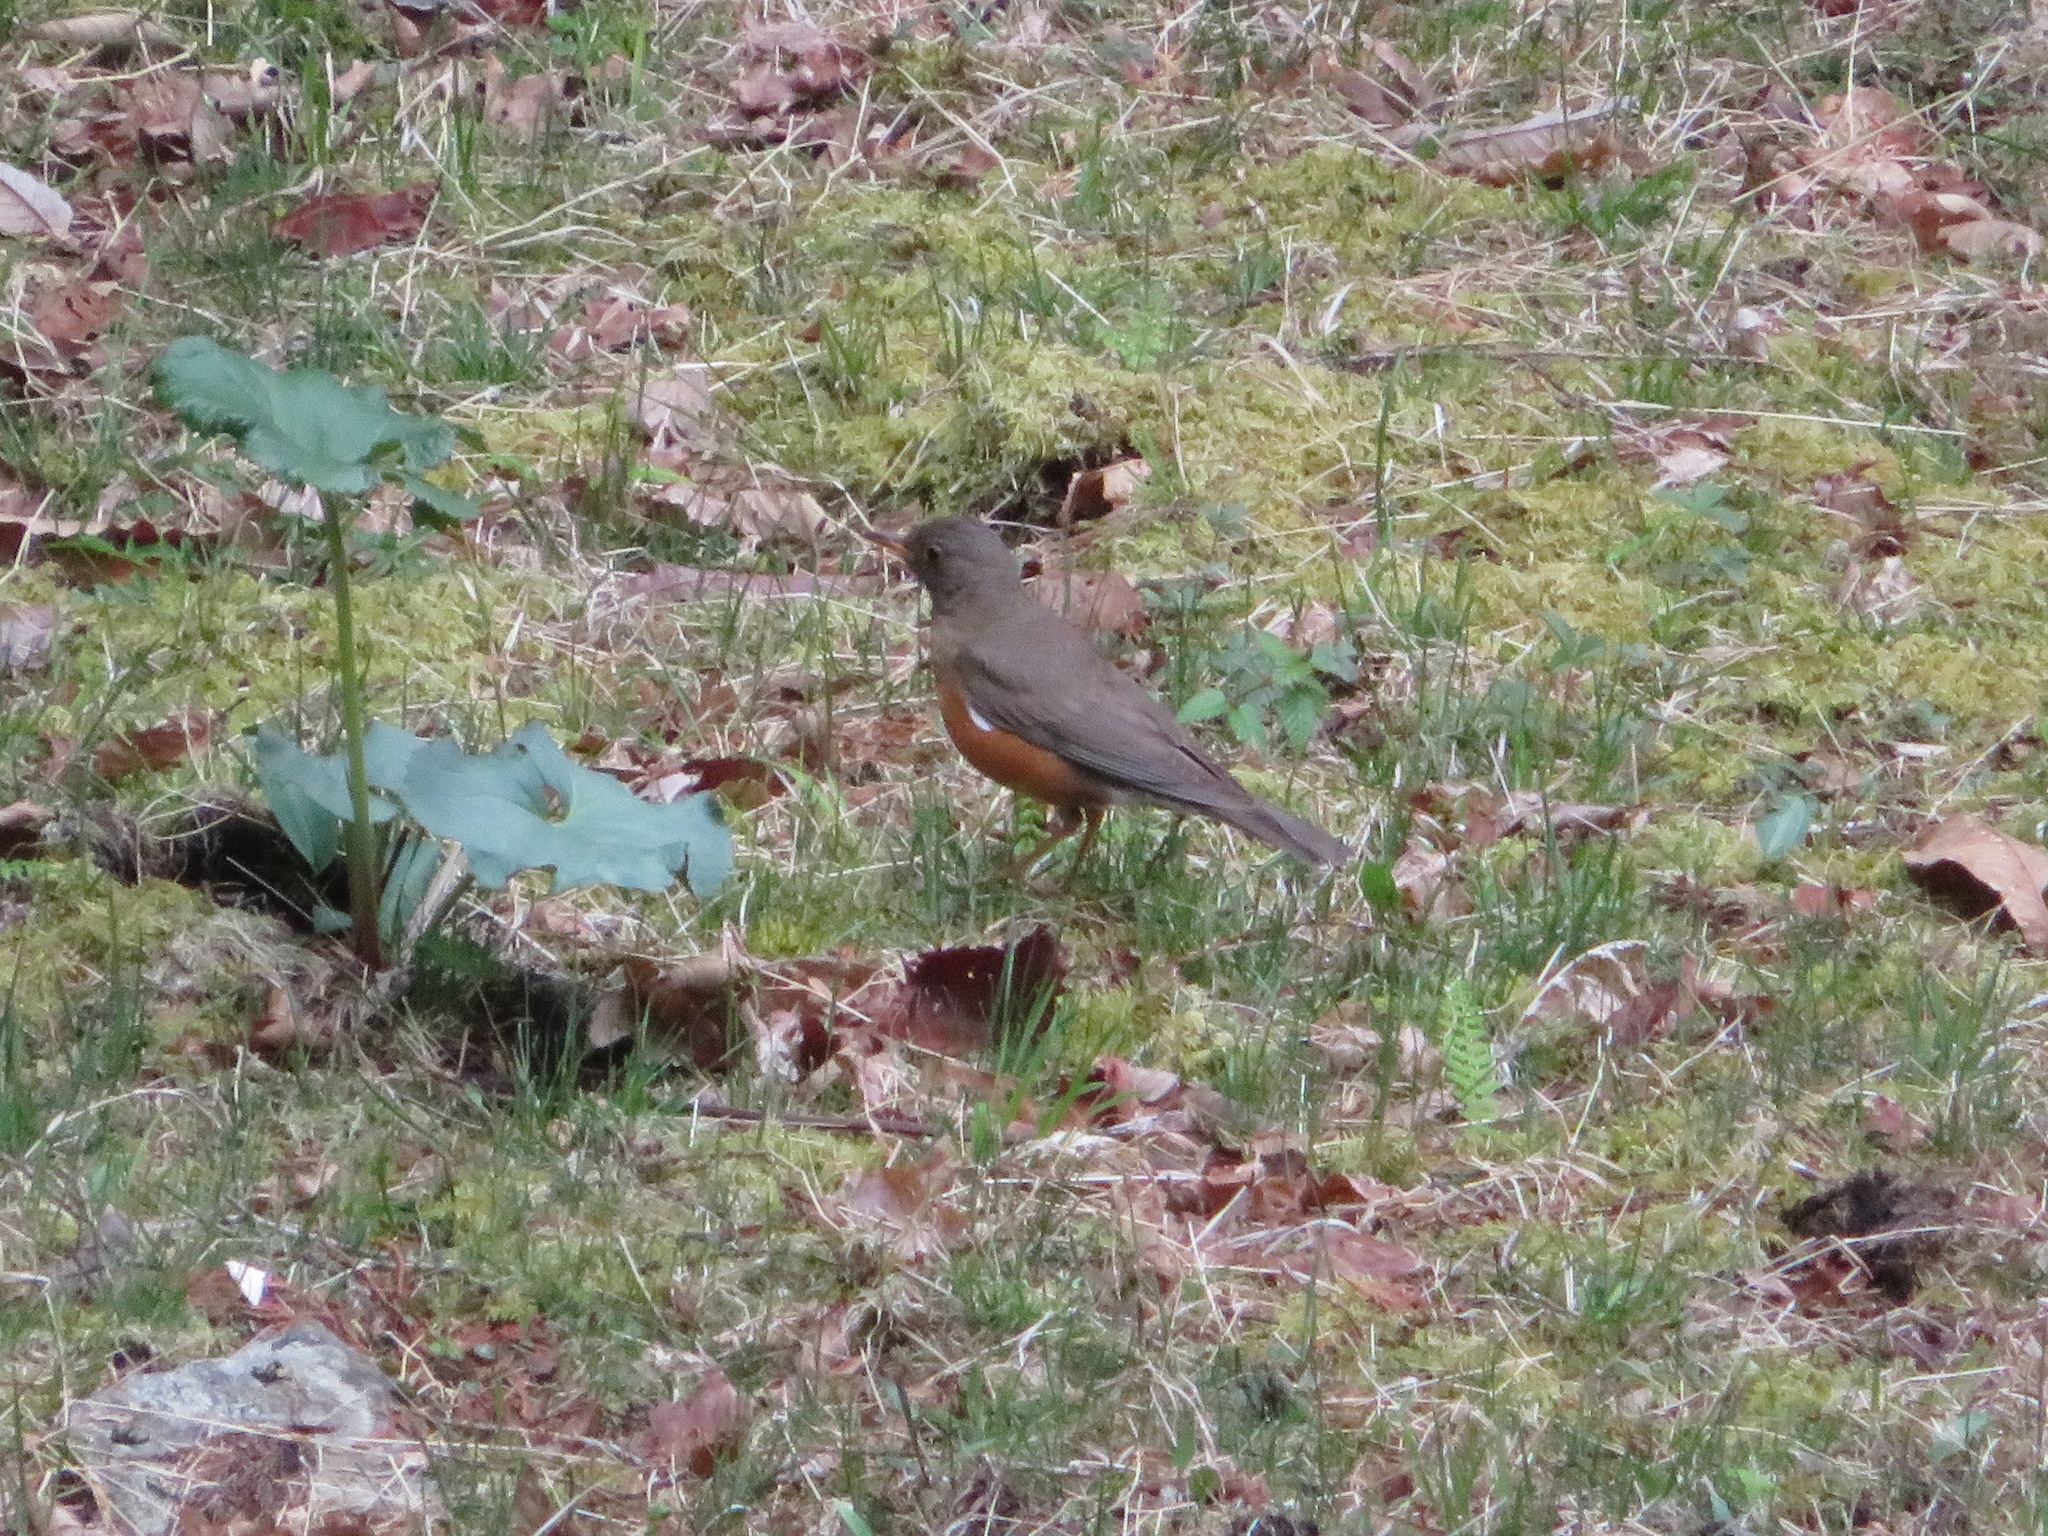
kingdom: Animalia
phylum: Chordata
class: Aves
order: Passeriformes
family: Turdidae
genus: Turdus
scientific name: Turdus chrysolaus
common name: Brown-headed thrush
